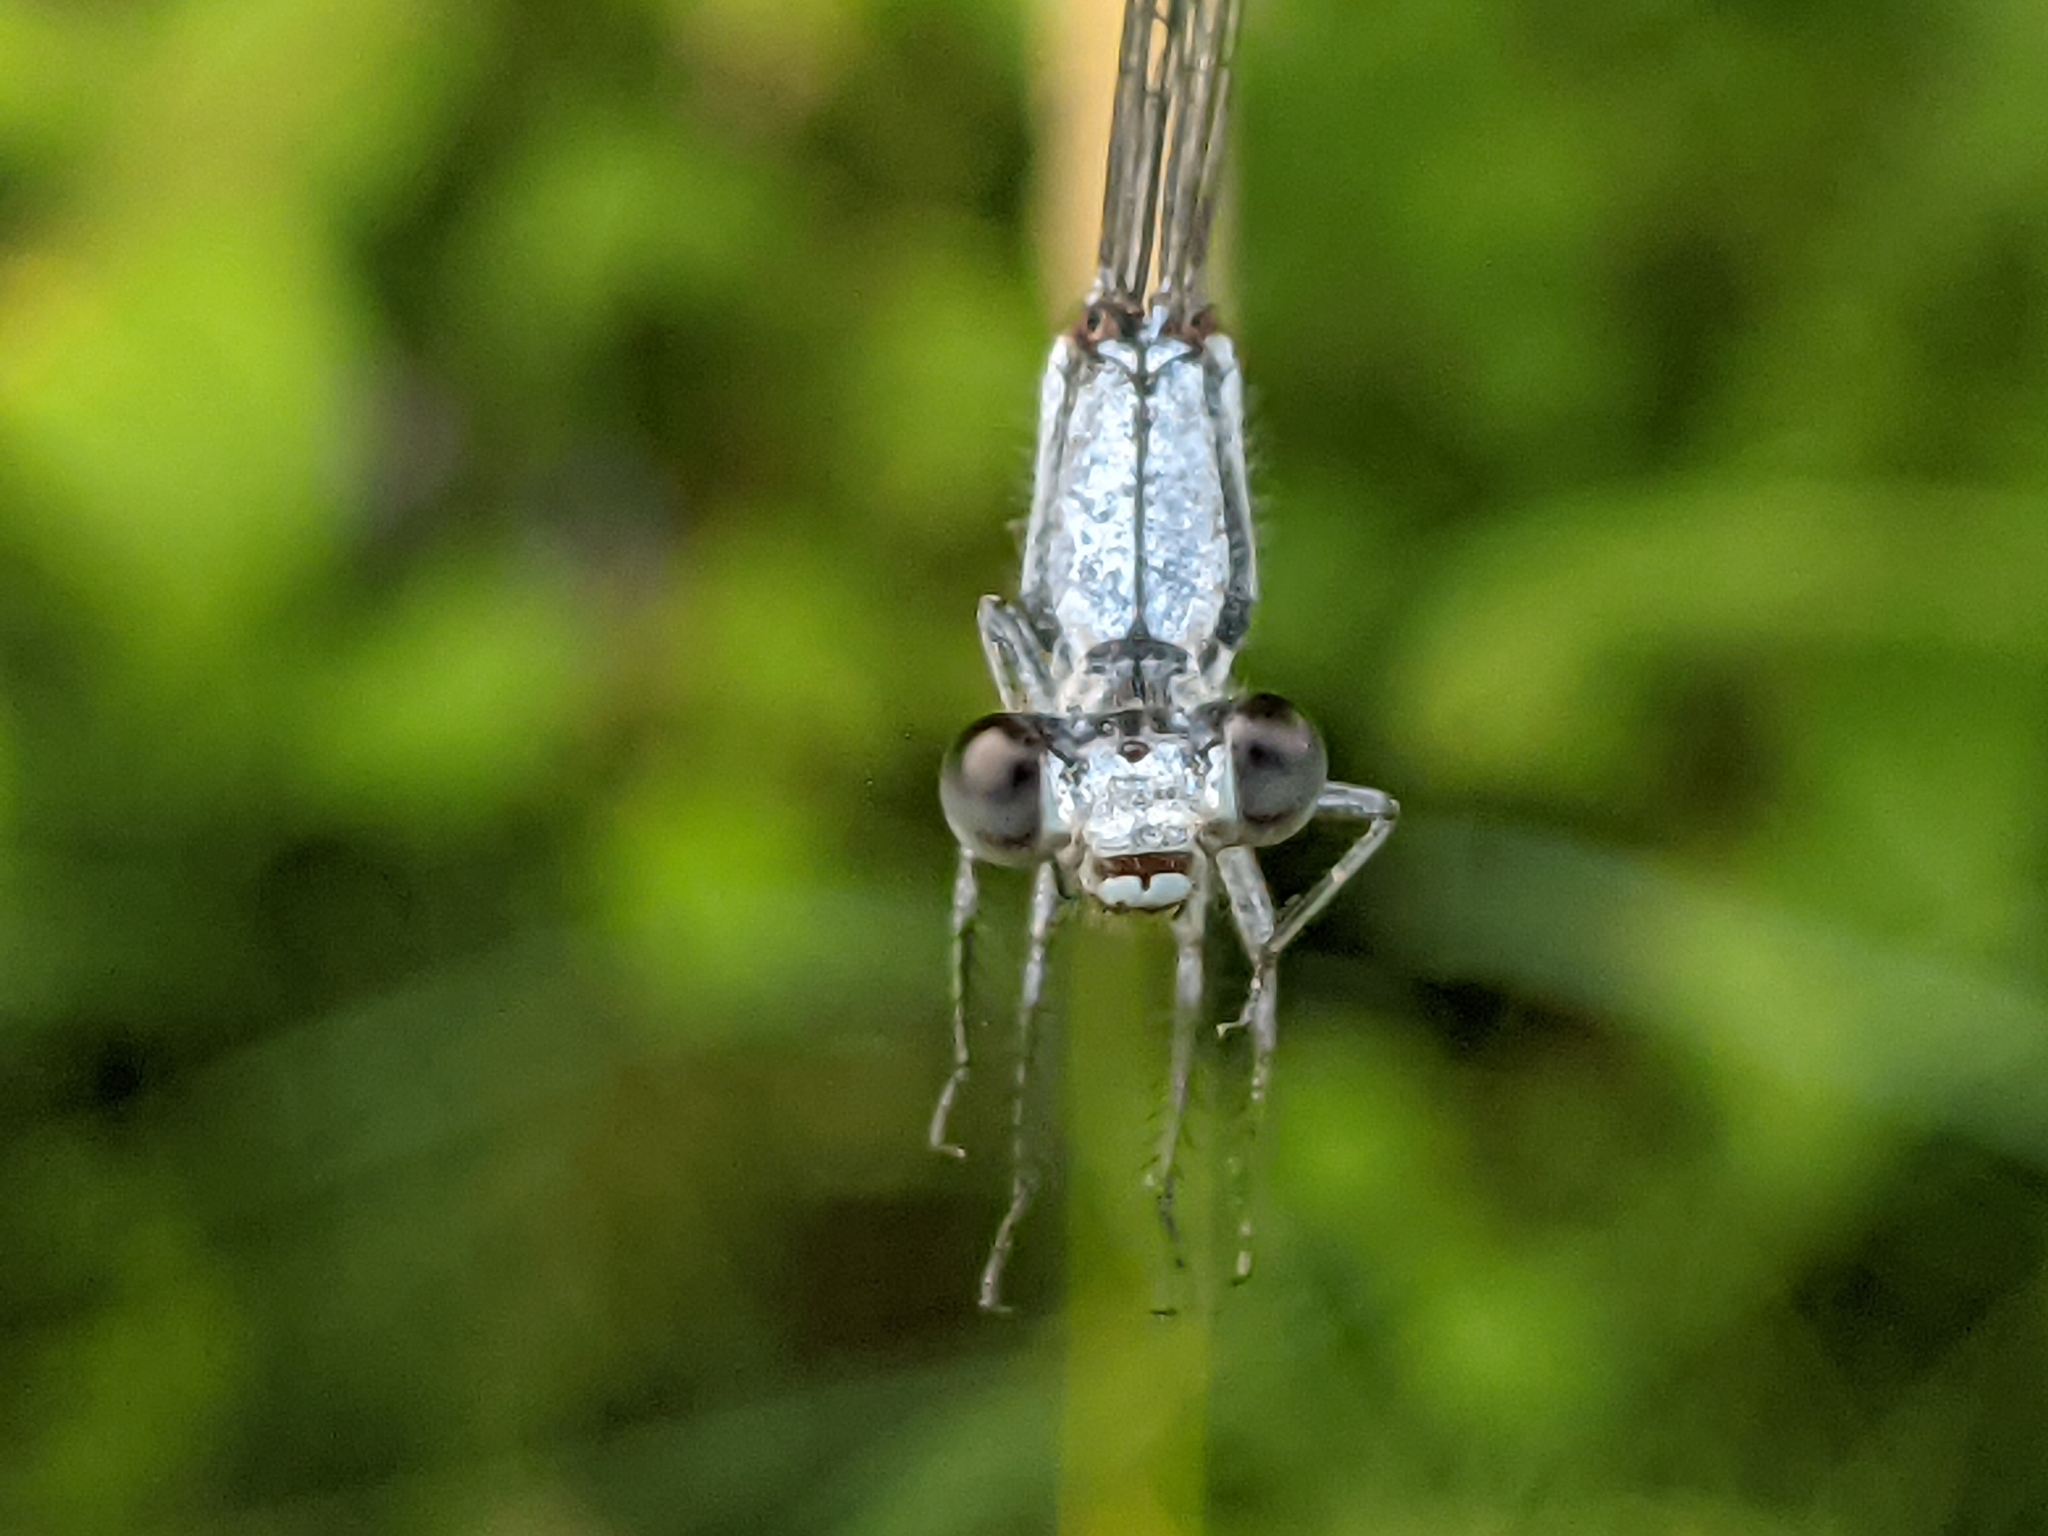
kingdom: Animalia
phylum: Arthropoda
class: Insecta
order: Odonata
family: Coenagrionidae
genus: Argia
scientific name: Argia moesta
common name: Powdered dancer
